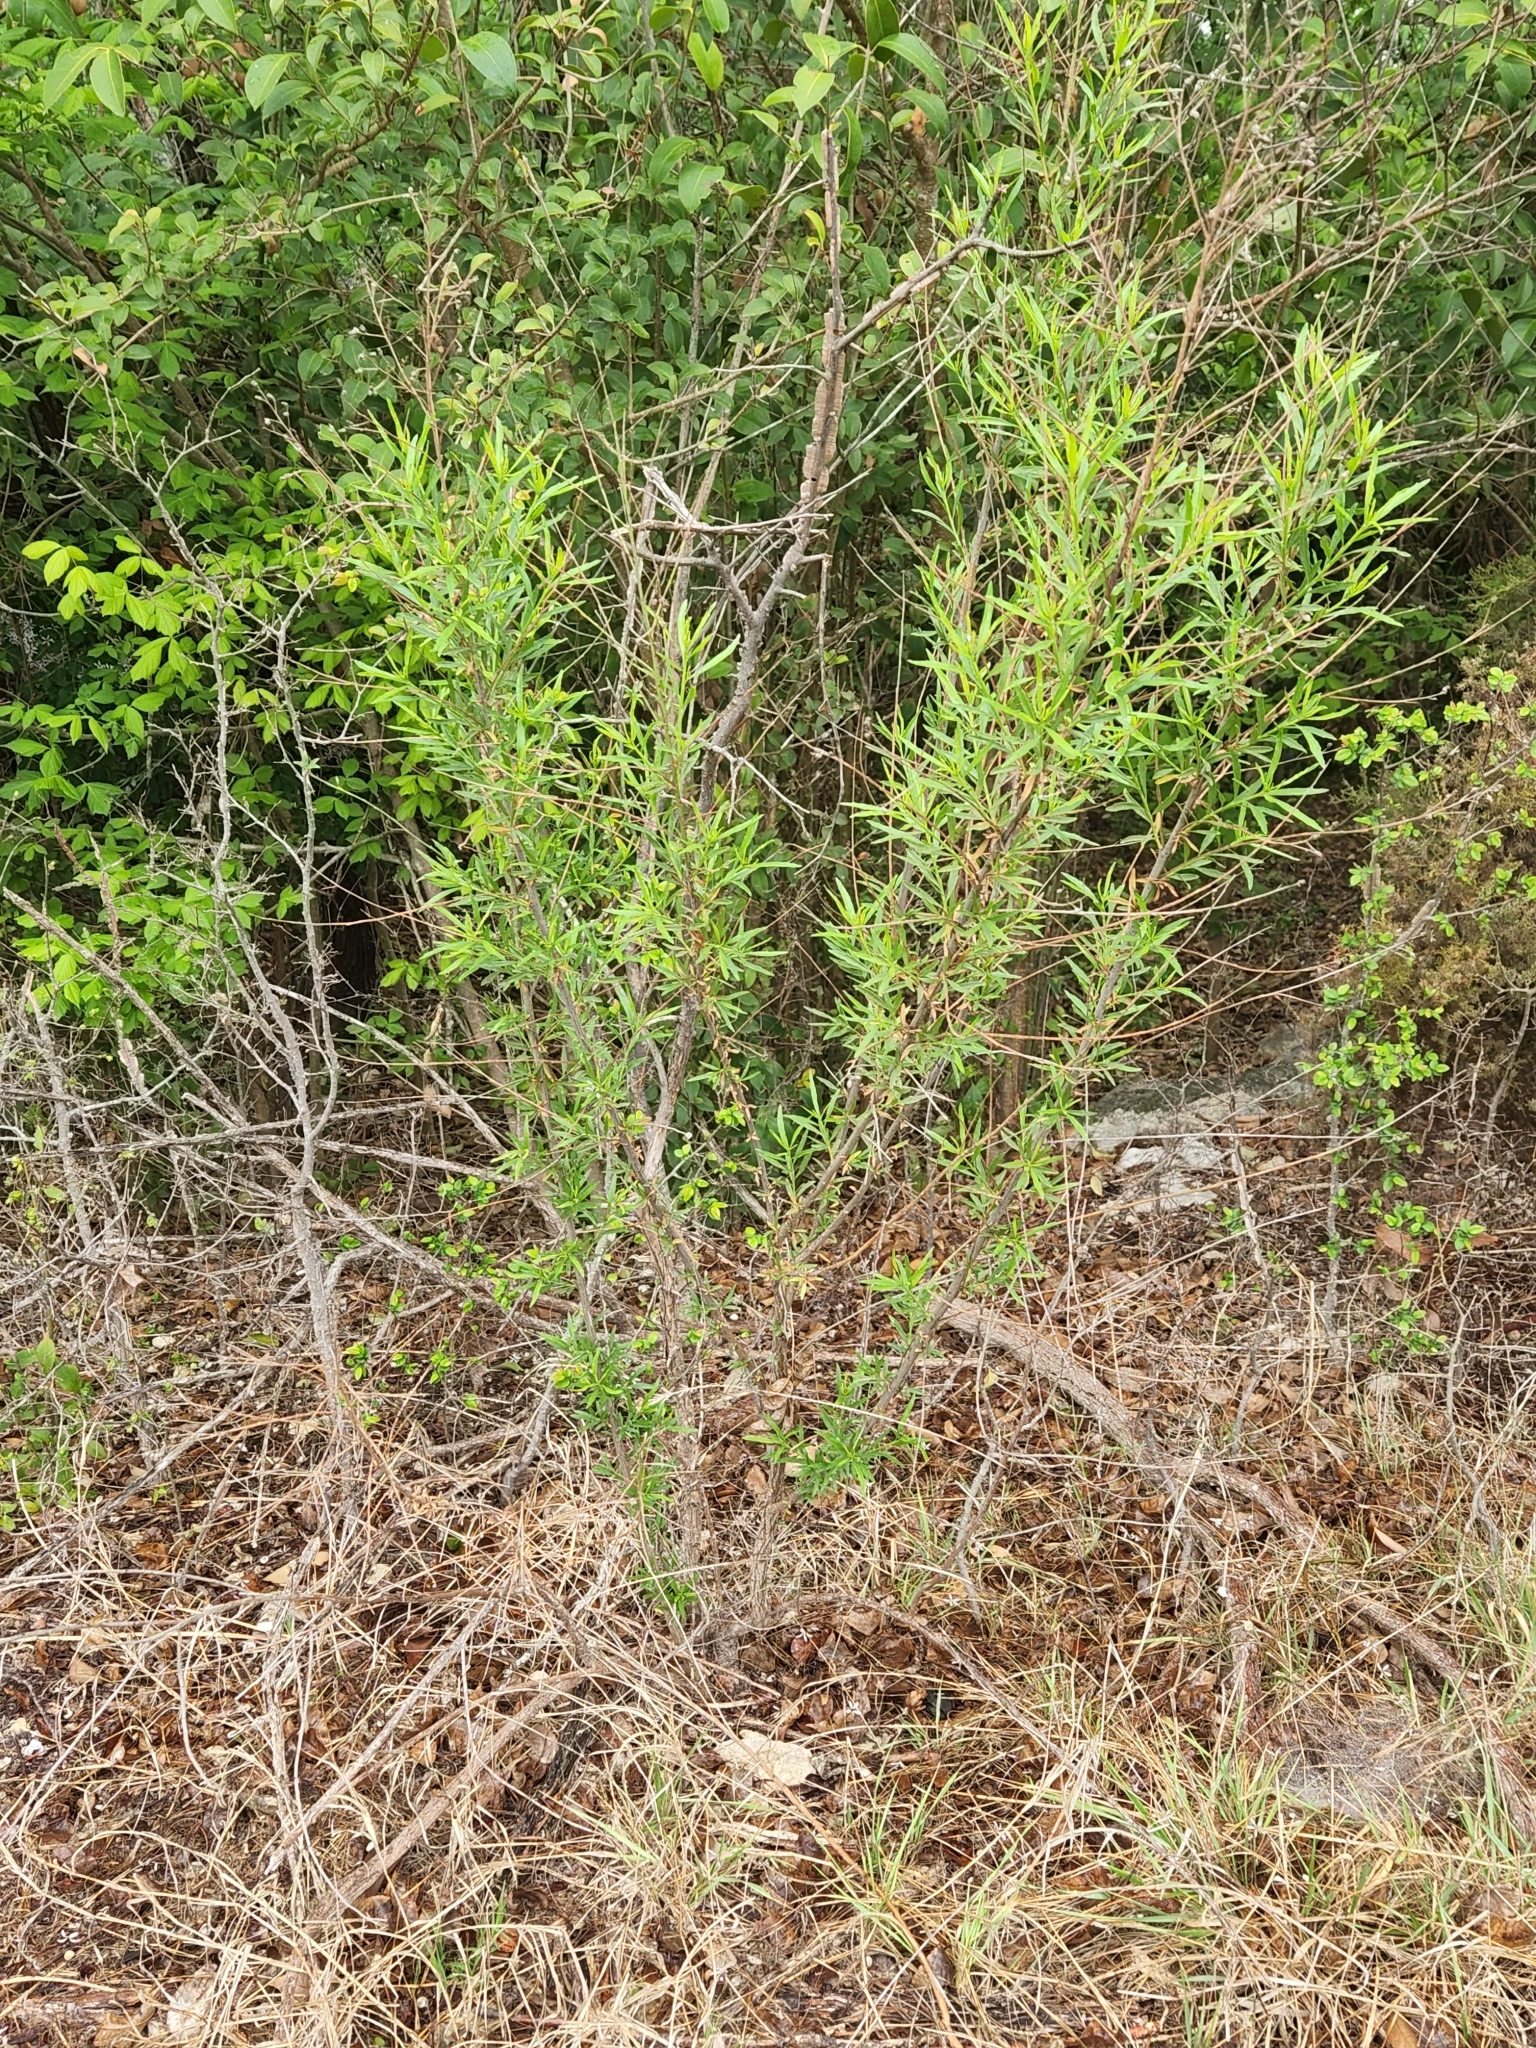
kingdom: Plantae
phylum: Tracheophyta
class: Magnoliopsida
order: Asterales
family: Asteraceae
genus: Baccharis
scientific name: Baccharis neglecta
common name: Roosevelt-weed
